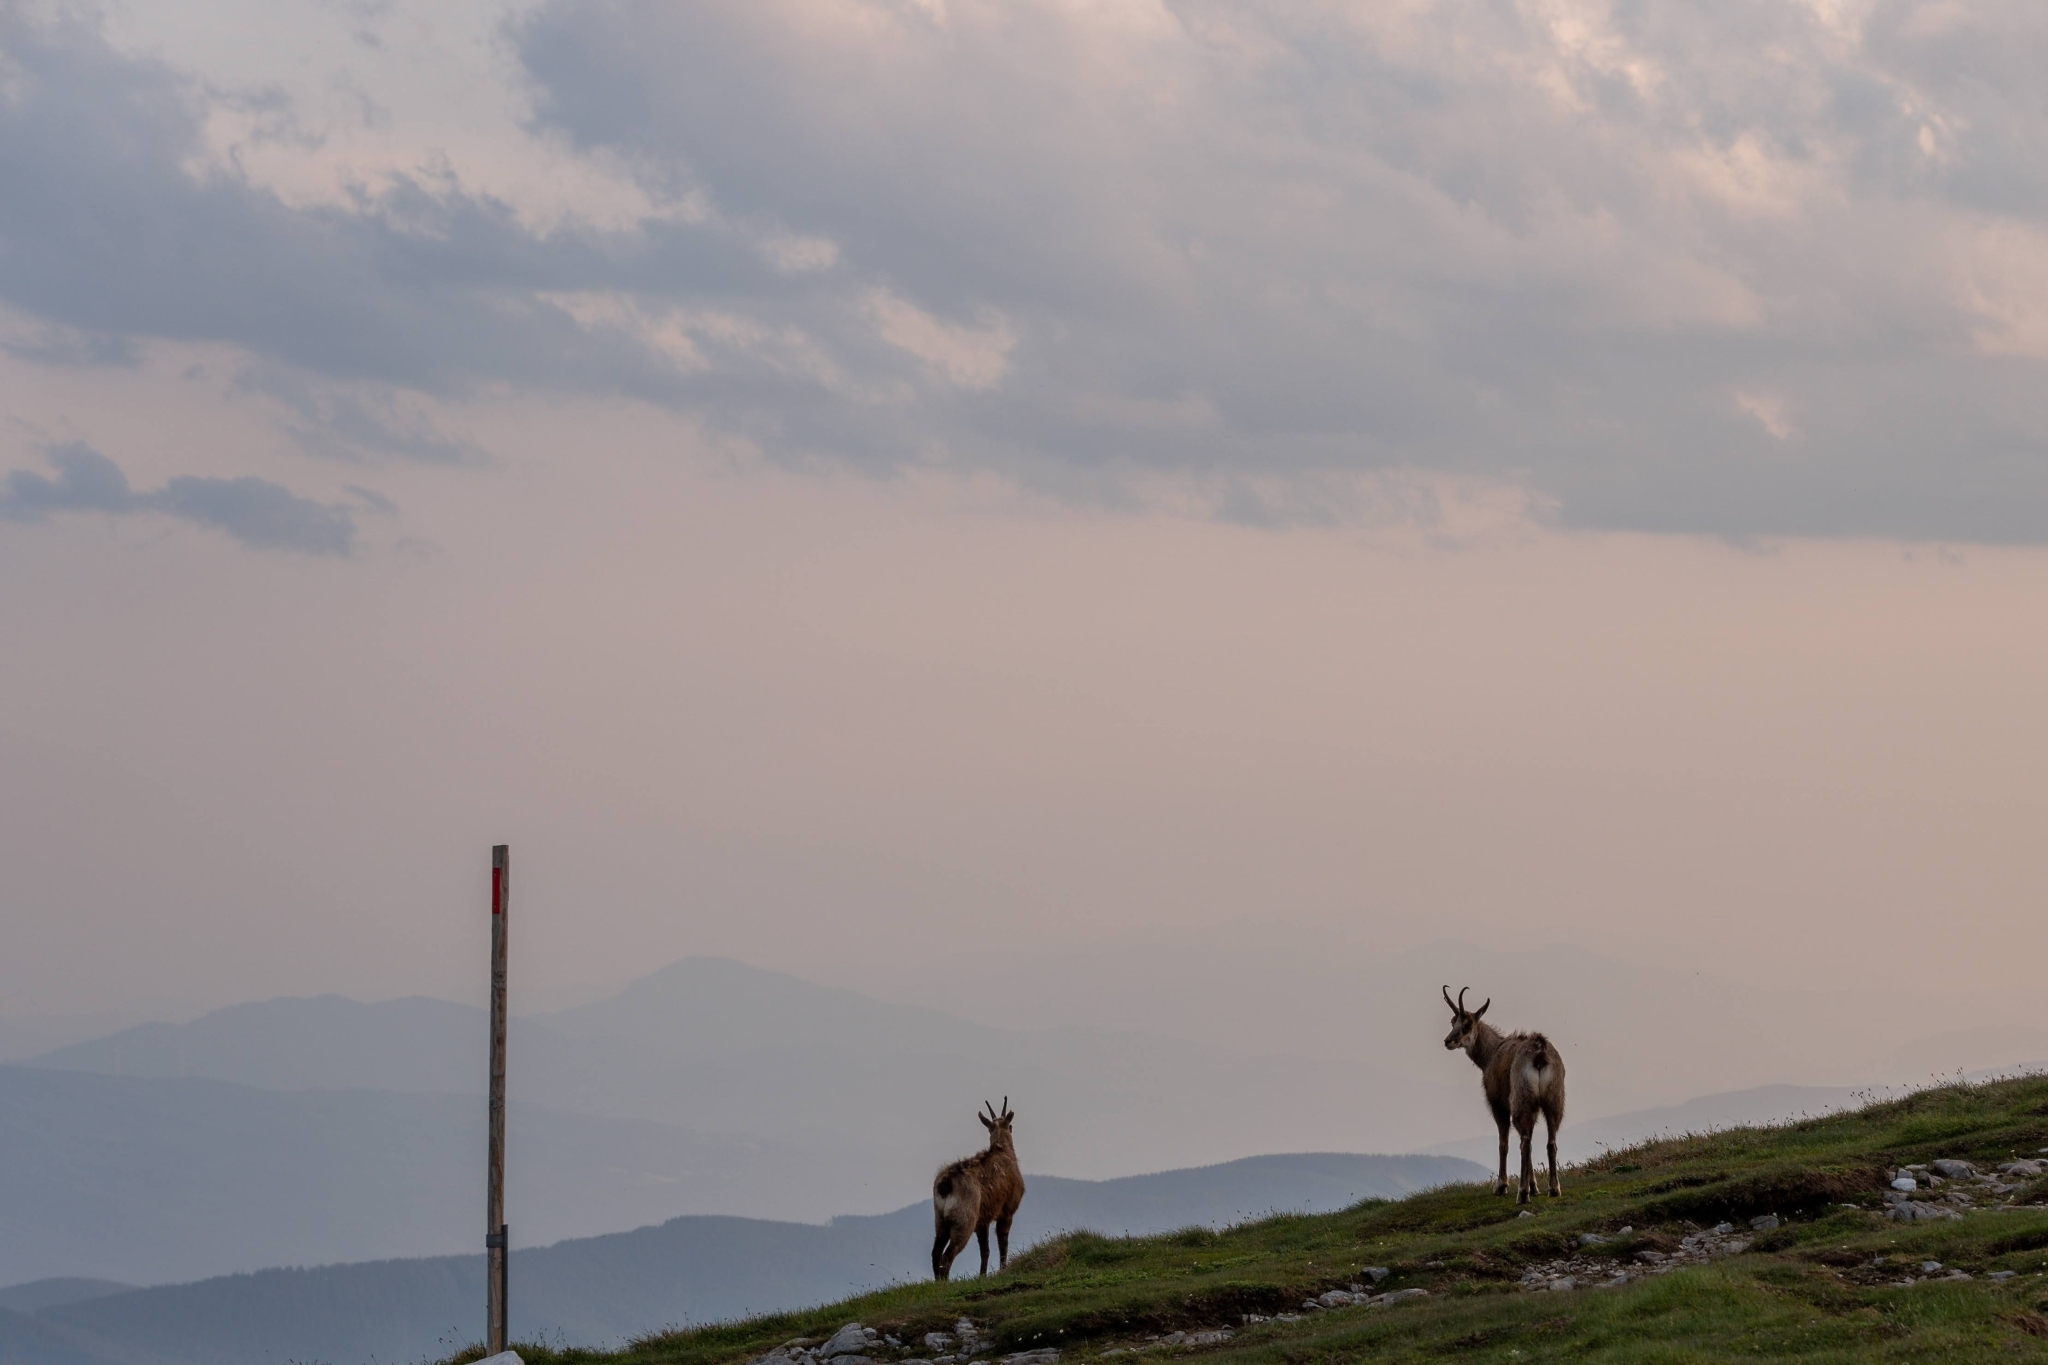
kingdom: Animalia
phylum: Chordata
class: Mammalia
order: Artiodactyla
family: Bovidae
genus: Rupicapra
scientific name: Rupicapra rupicapra
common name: Chamois
